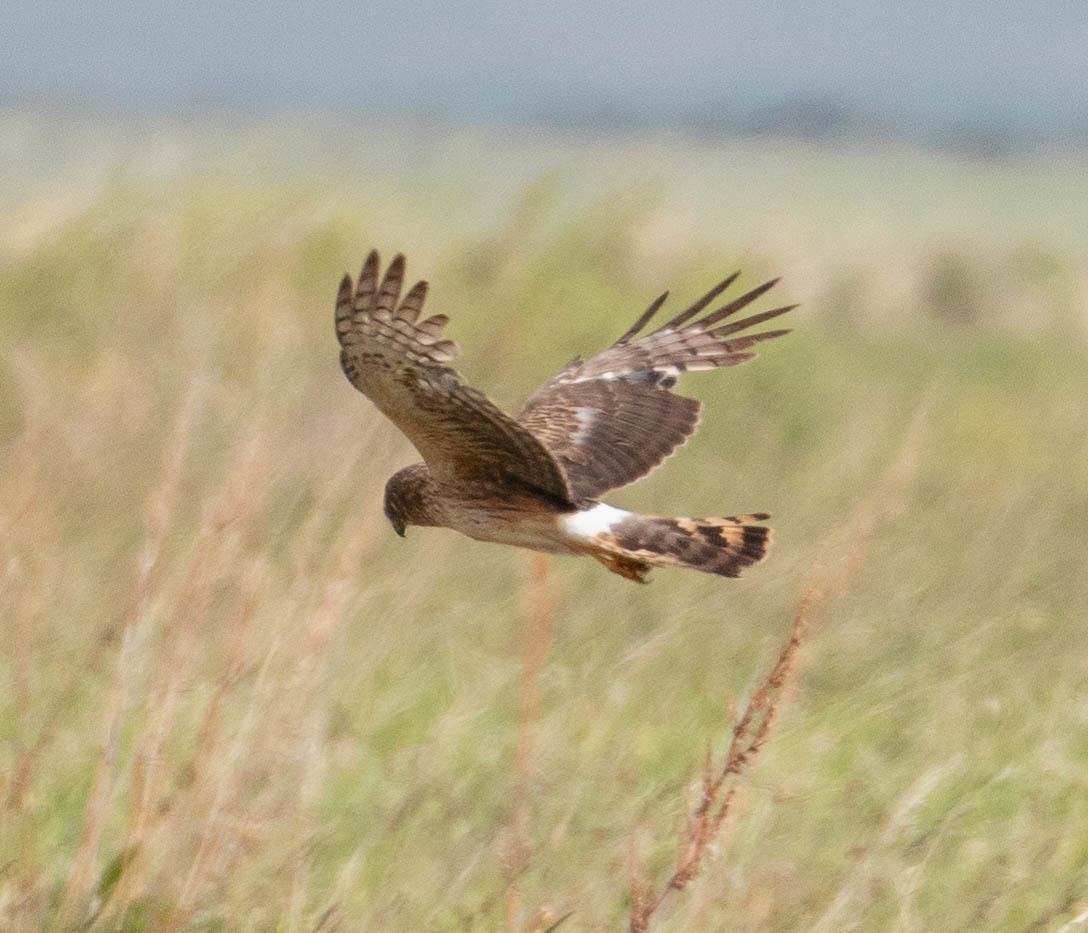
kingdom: Animalia
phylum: Chordata
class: Aves
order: Accipitriformes
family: Accipitridae
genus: Circus
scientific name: Circus cyaneus
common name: Hen harrier
